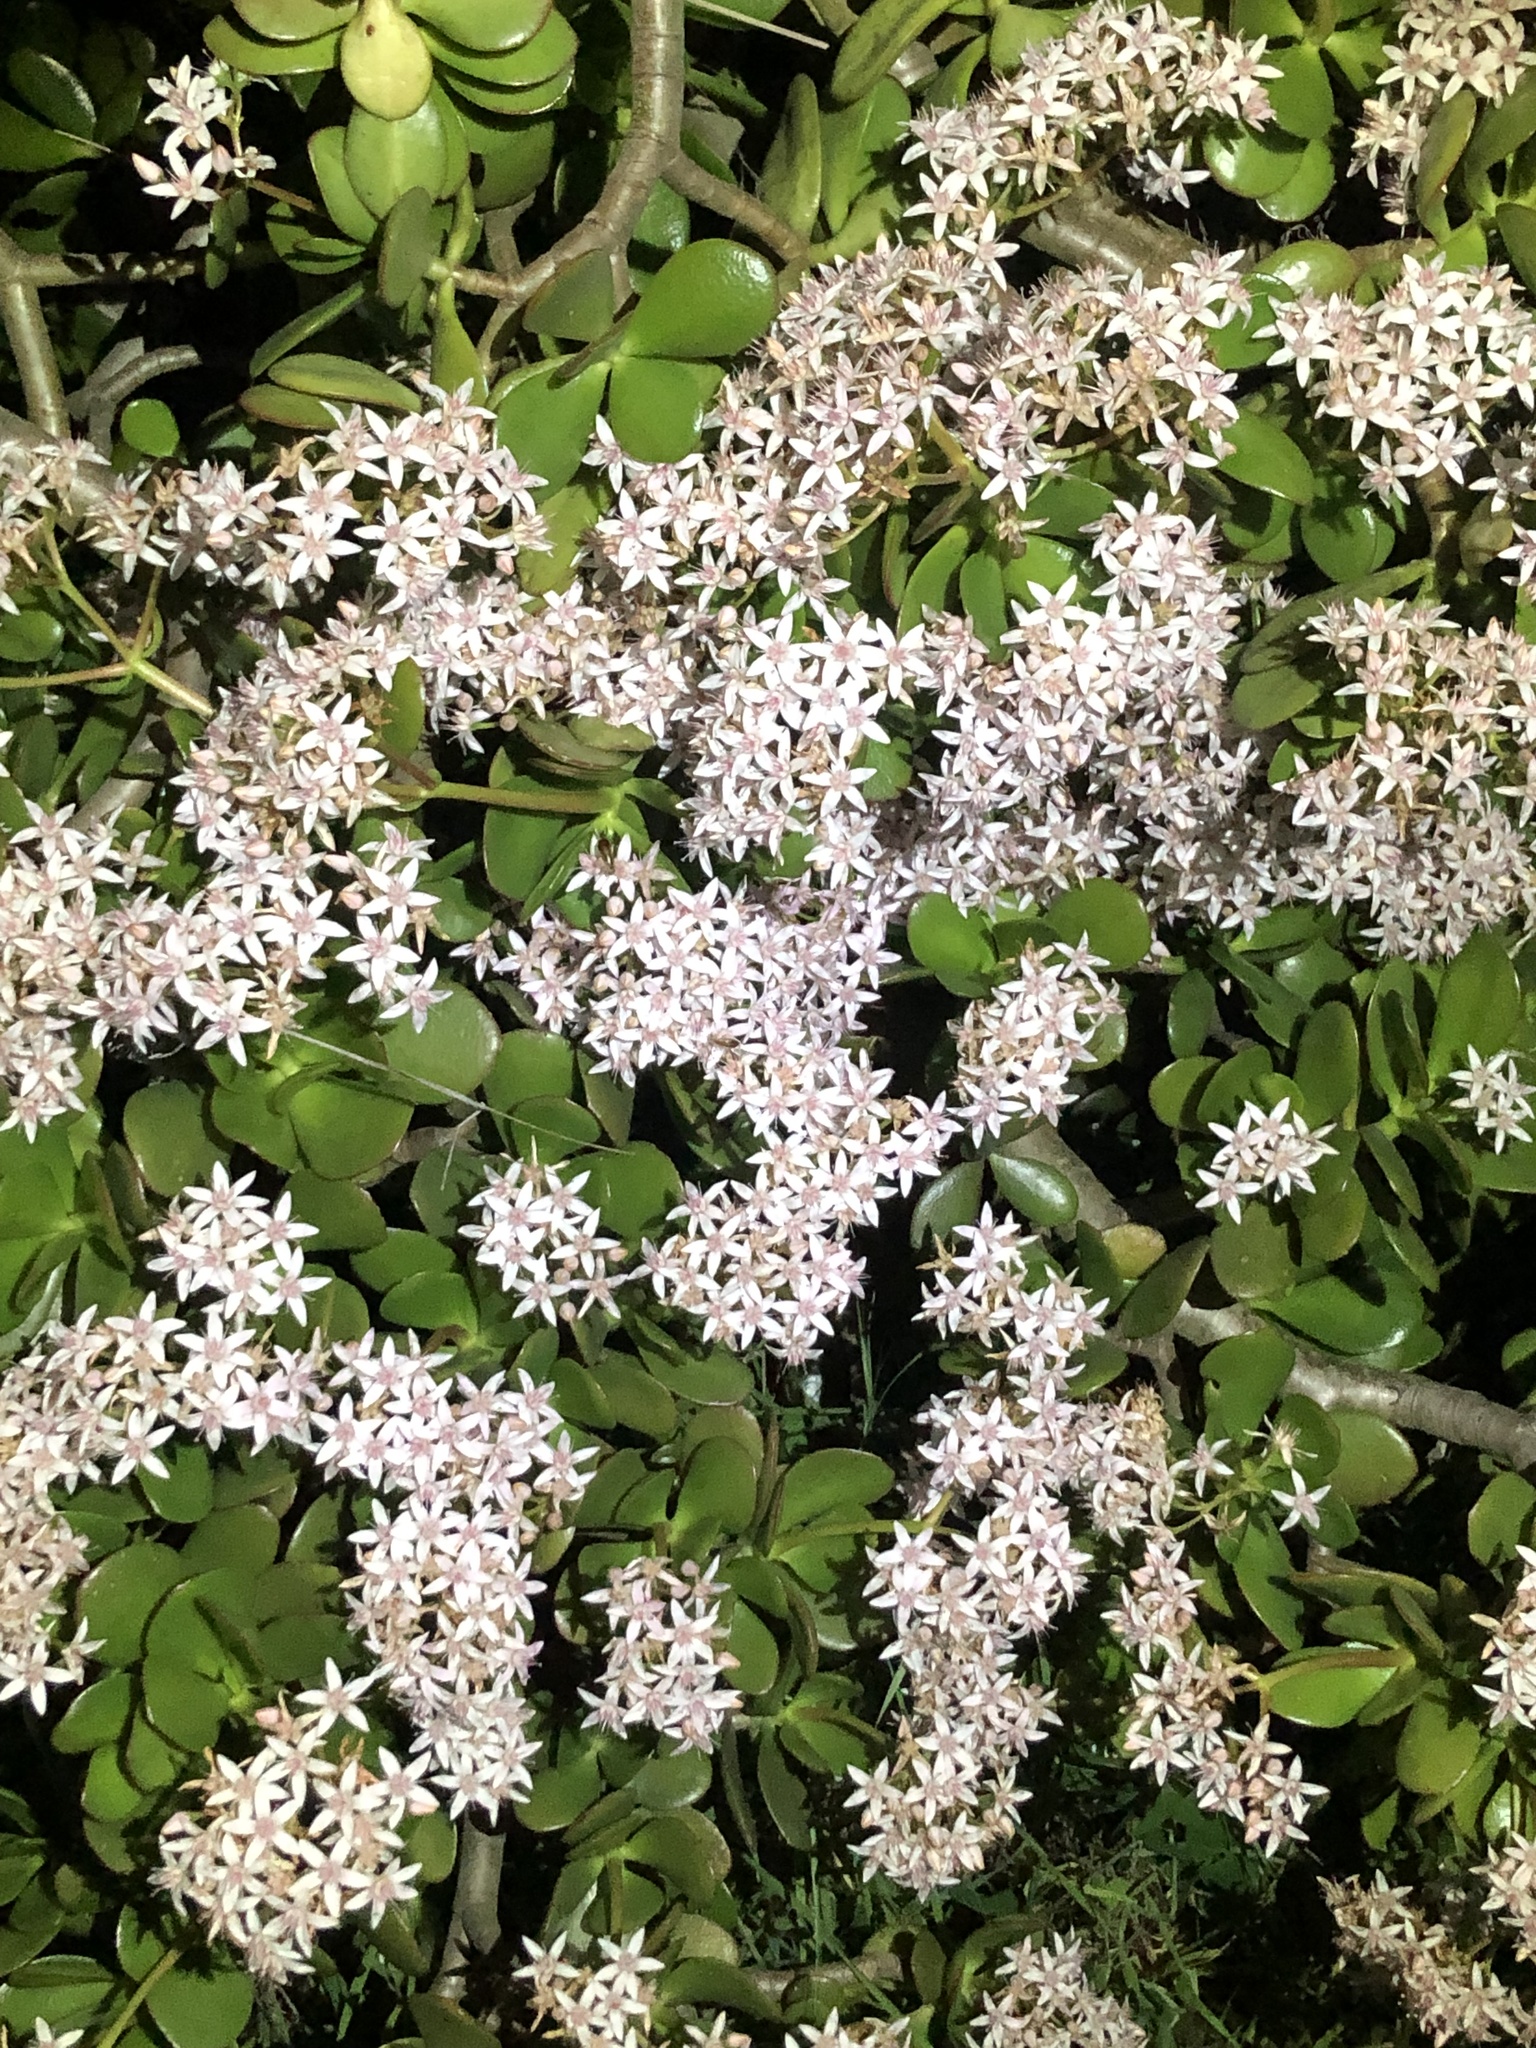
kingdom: Plantae
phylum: Tracheophyta
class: Magnoliopsida
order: Saxifragales
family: Crassulaceae
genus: Crassula
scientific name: Crassula ovata
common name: Jade plant
